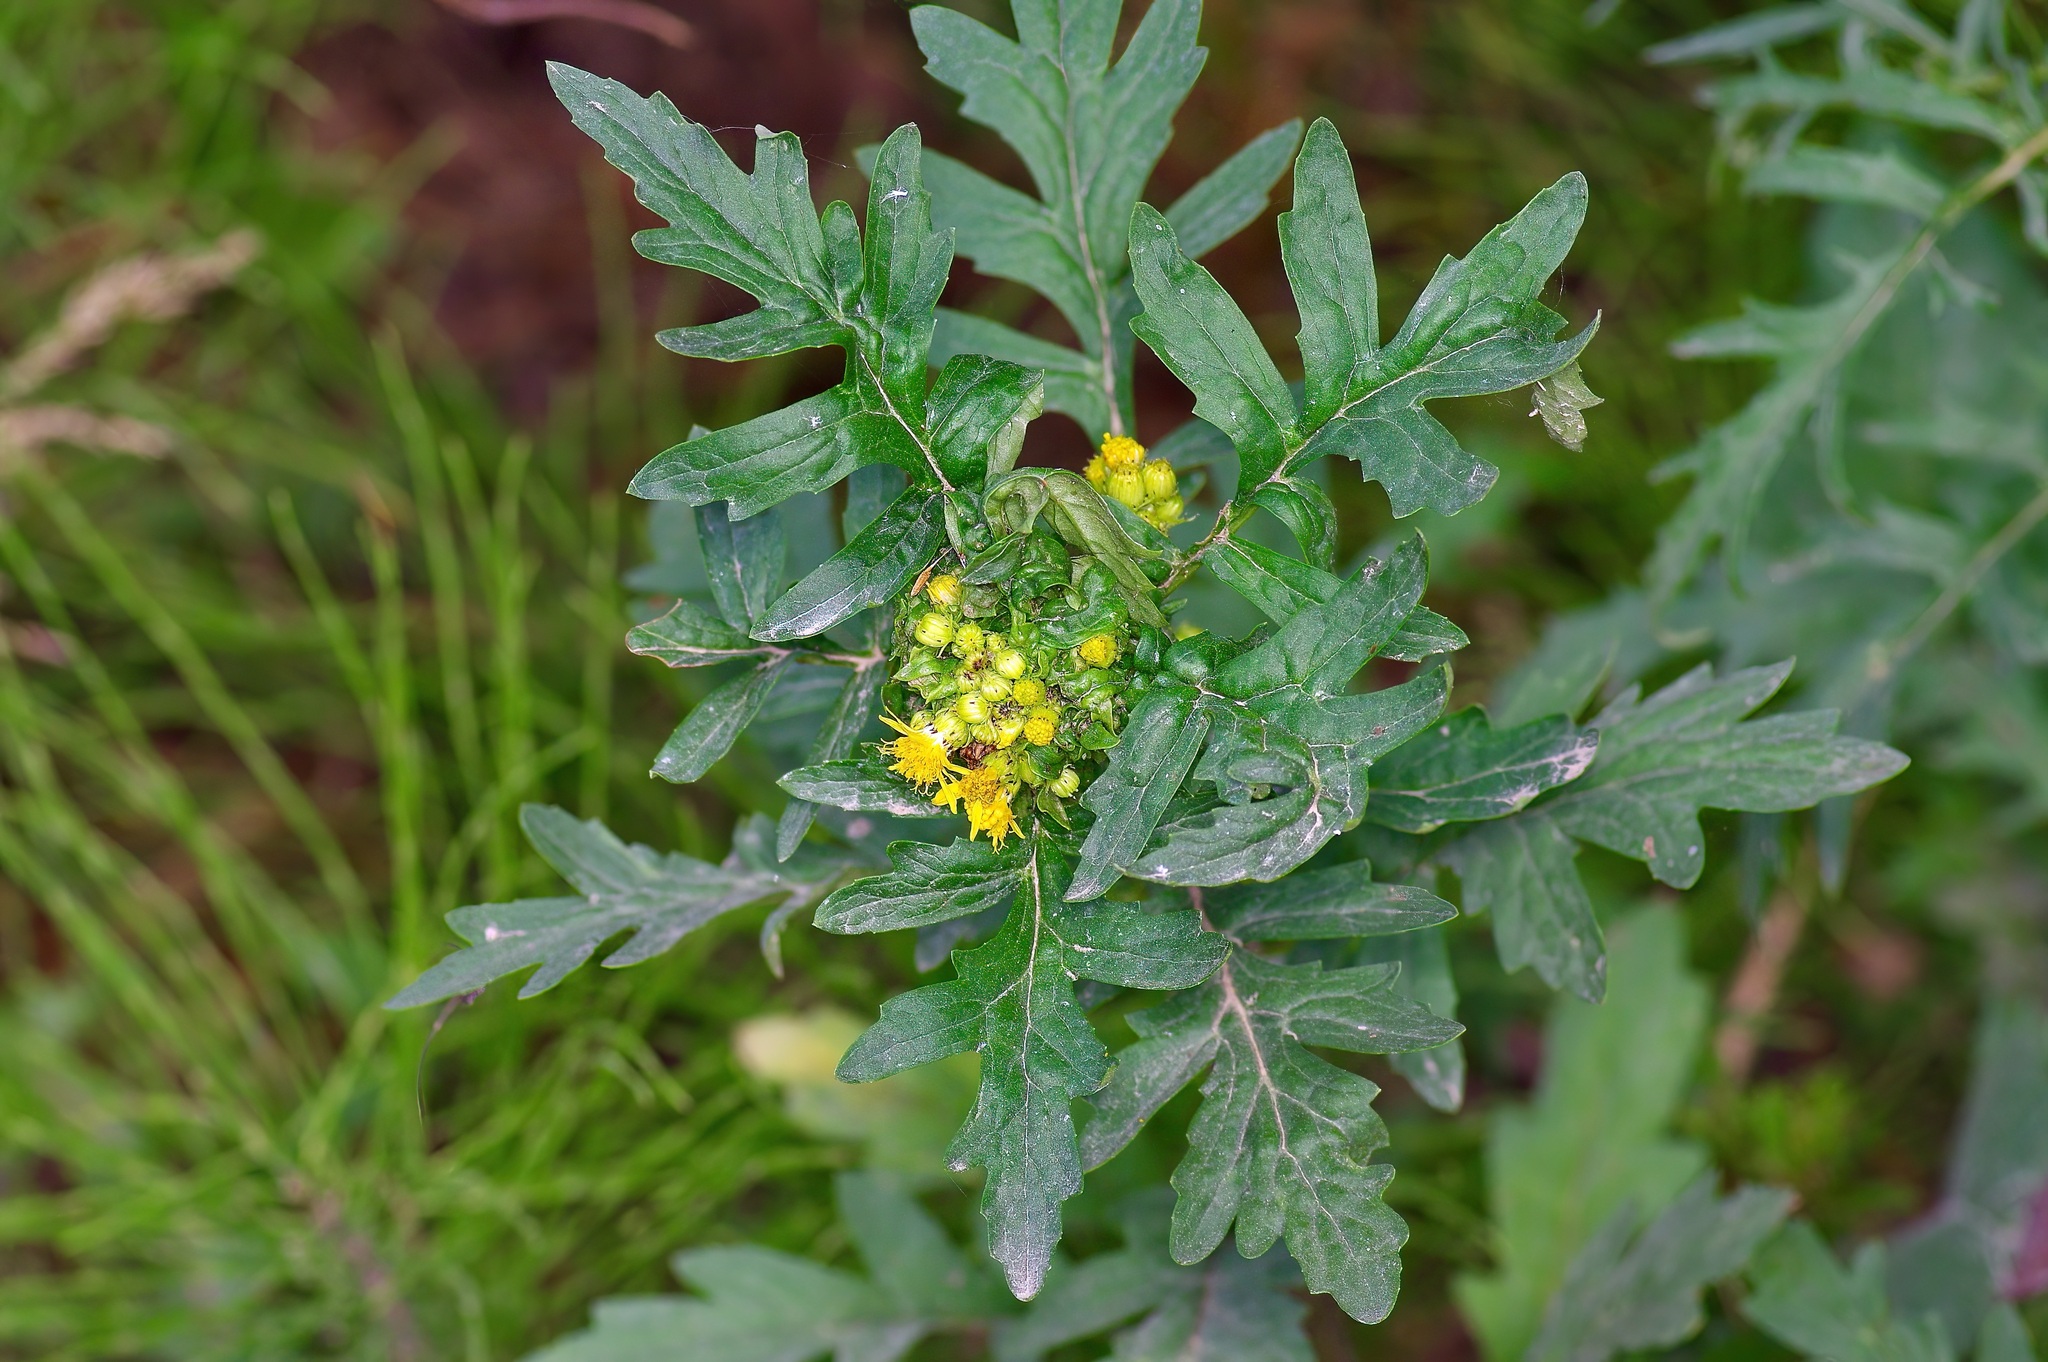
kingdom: Plantae
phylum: Tracheophyta
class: Magnoliopsida
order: Asterales
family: Asteraceae
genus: Senecio
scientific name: Senecio eremophilus
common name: Desert ragwort
